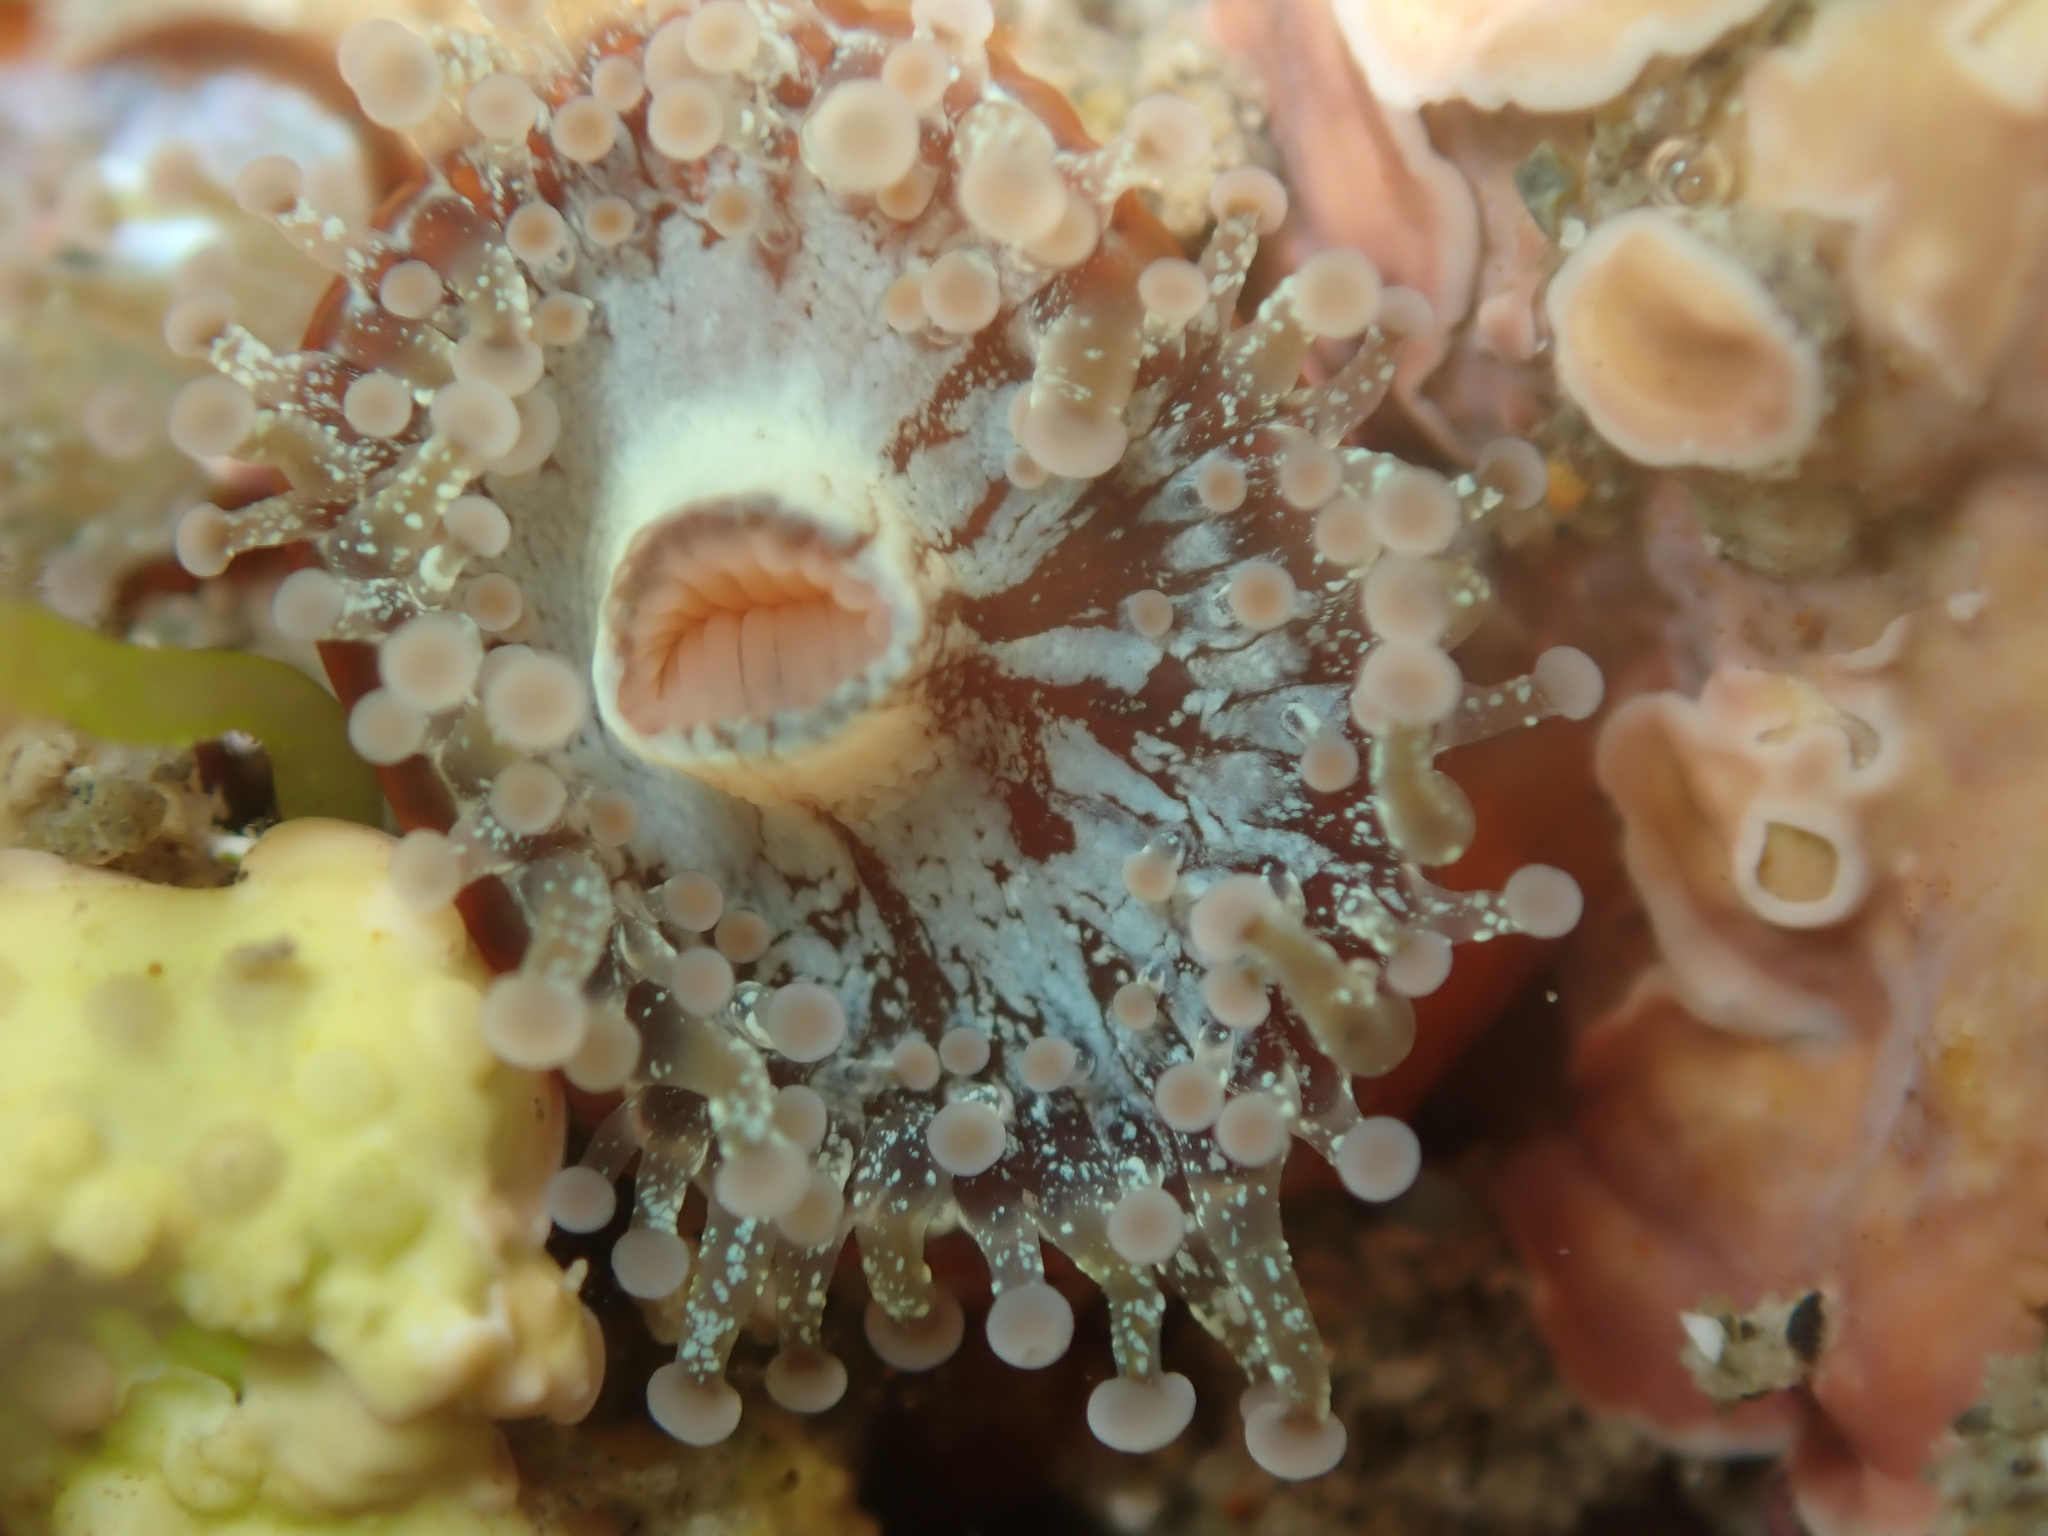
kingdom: Animalia
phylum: Cnidaria
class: Anthozoa
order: Corallimorpharia
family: Corallimorphidae
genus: Corynactis
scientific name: Corynactis australis
